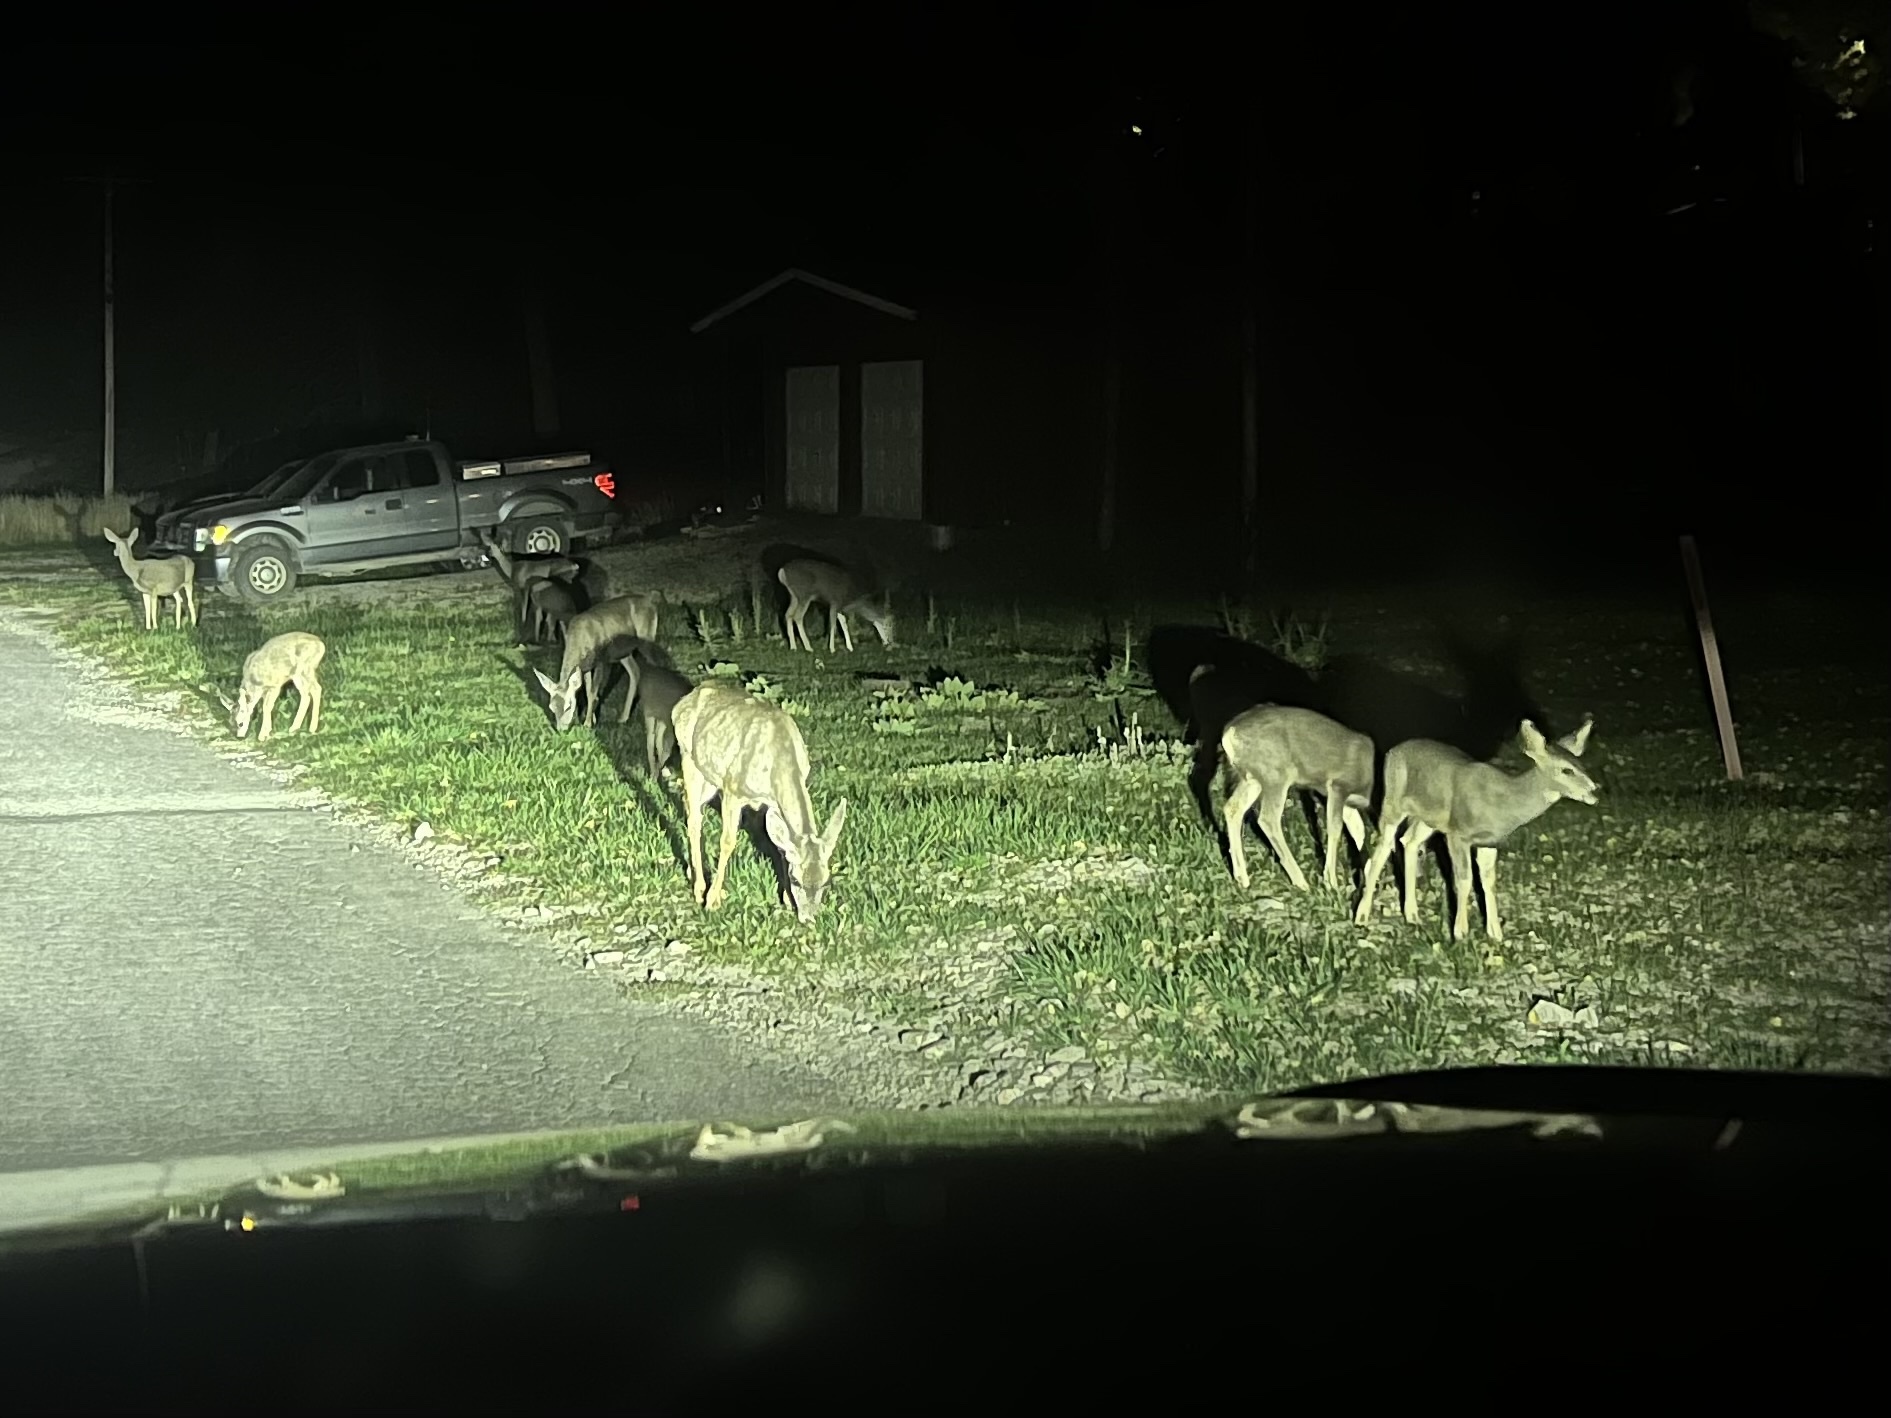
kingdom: Animalia
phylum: Chordata
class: Mammalia
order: Artiodactyla
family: Cervidae
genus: Odocoileus
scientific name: Odocoileus hemionus
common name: Mule deer
